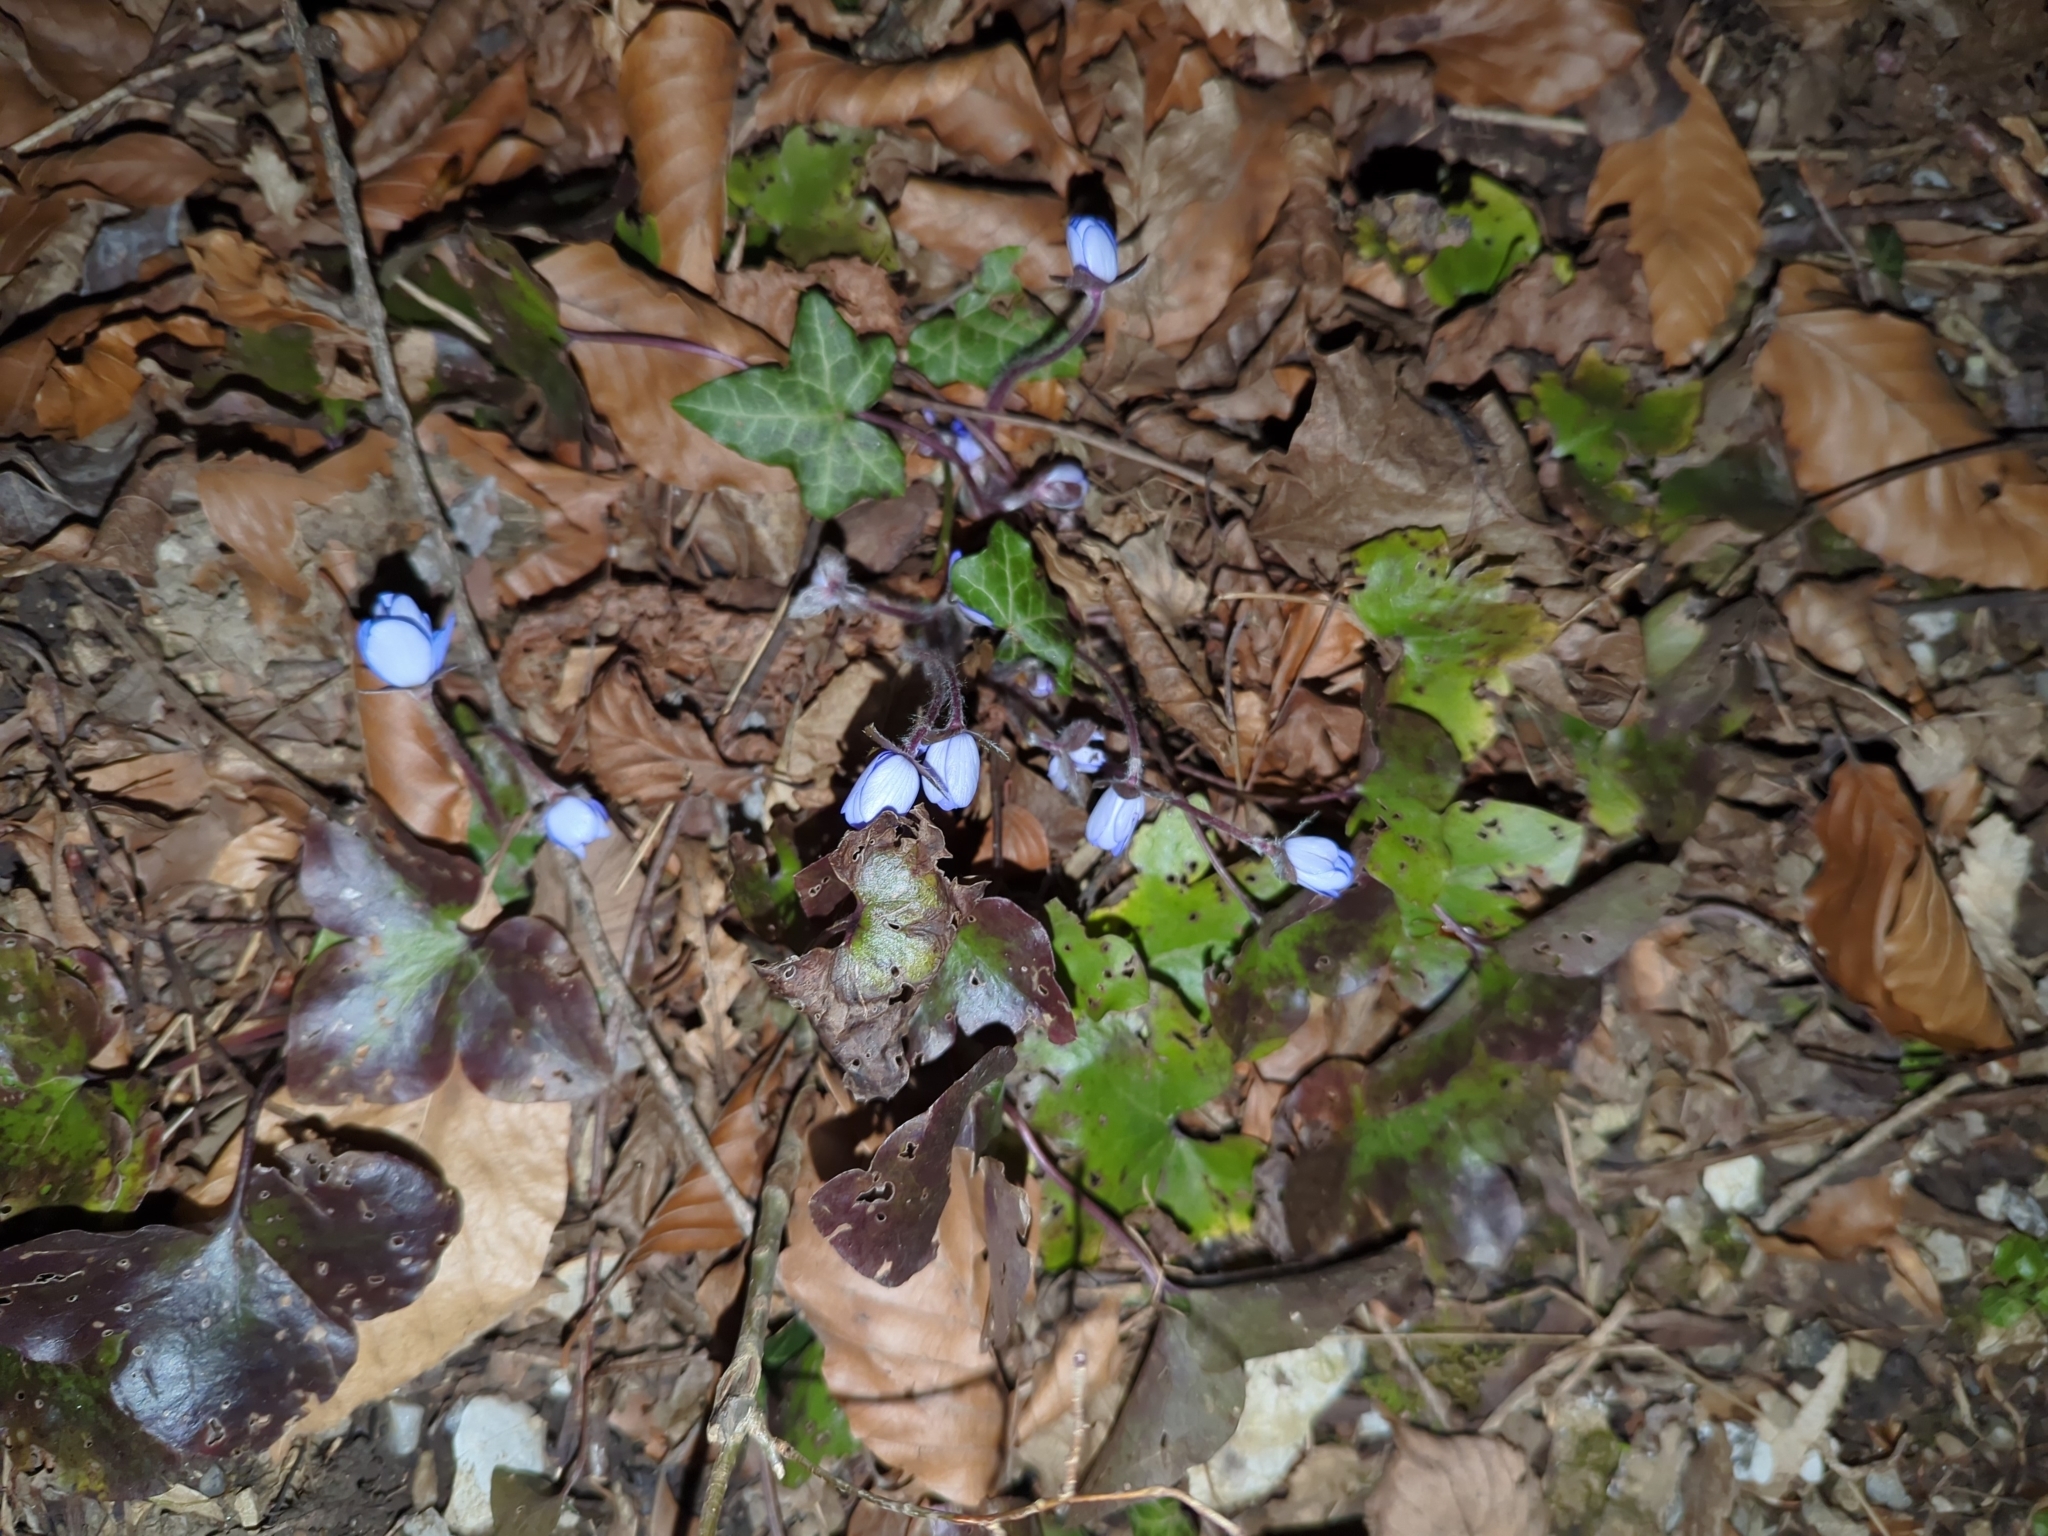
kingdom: Plantae
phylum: Tracheophyta
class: Magnoliopsida
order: Ranunculales
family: Ranunculaceae
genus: Hepatica
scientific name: Hepatica nobilis
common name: Liverleaf
